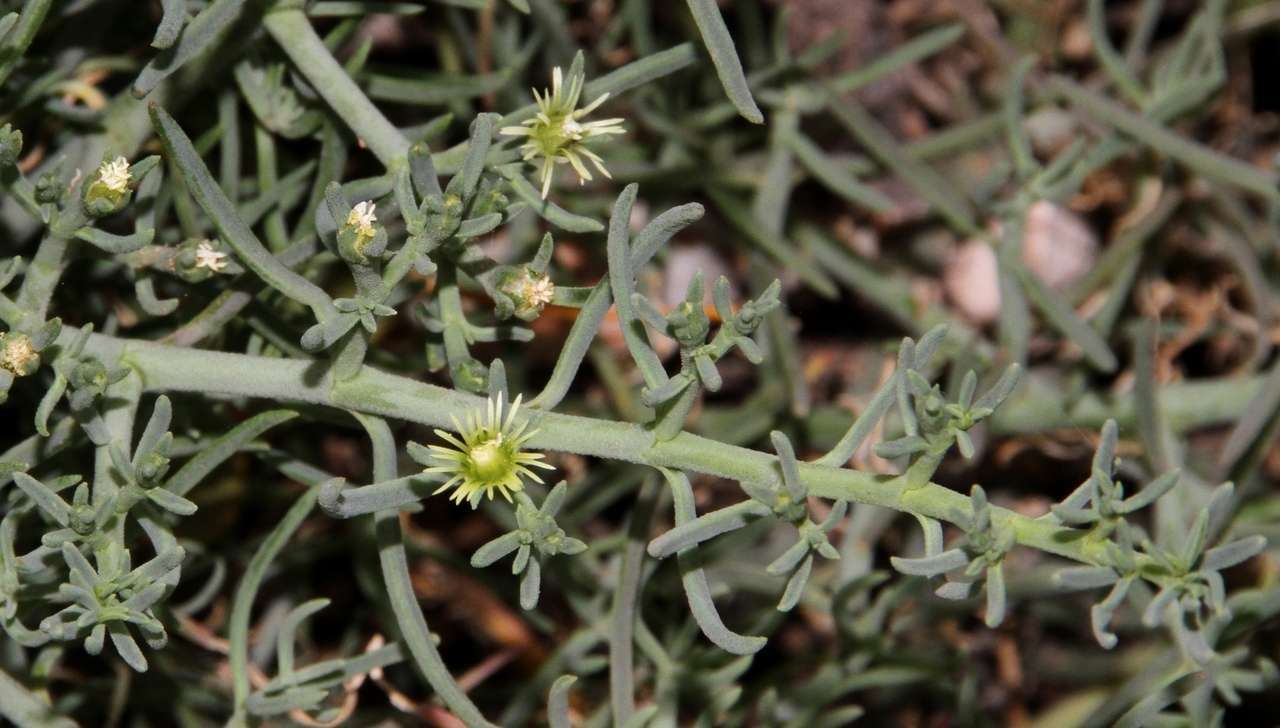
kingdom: Plantae
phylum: Tracheophyta
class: Magnoliopsida
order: Caryophyllales
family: Aizoaceae
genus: Mesembryanthemum
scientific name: Mesembryanthemum granulicaule
